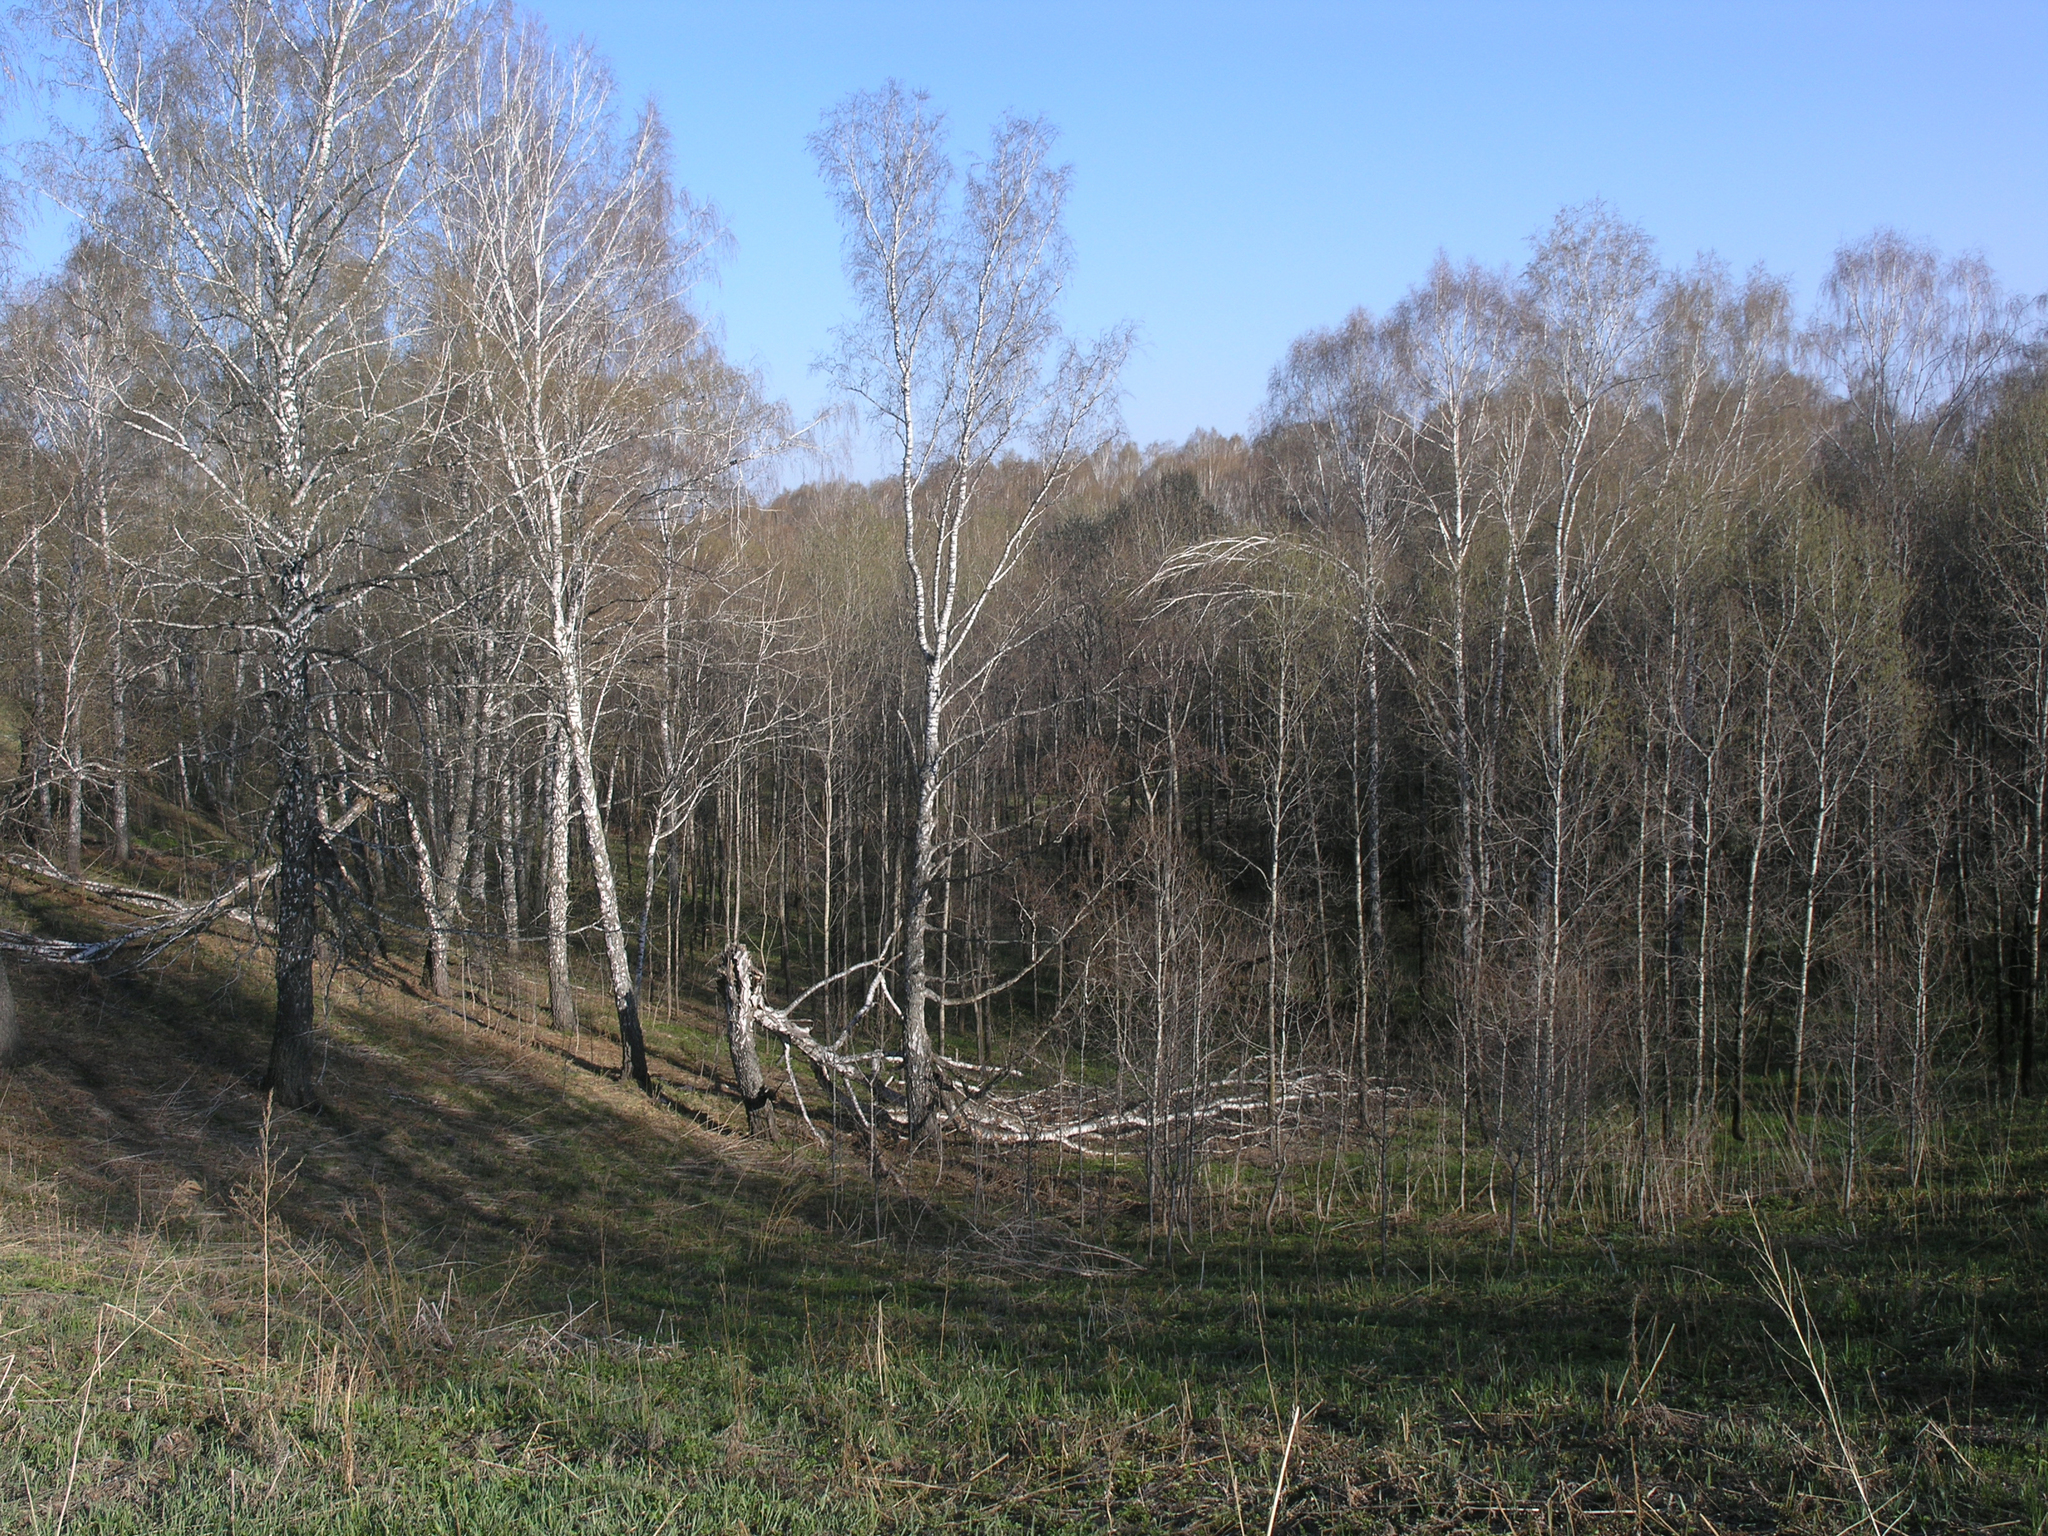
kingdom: Plantae
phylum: Tracheophyta
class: Magnoliopsida
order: Fagales
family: Betulaceae
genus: Betula
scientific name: Betula pendula
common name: Silver birch
